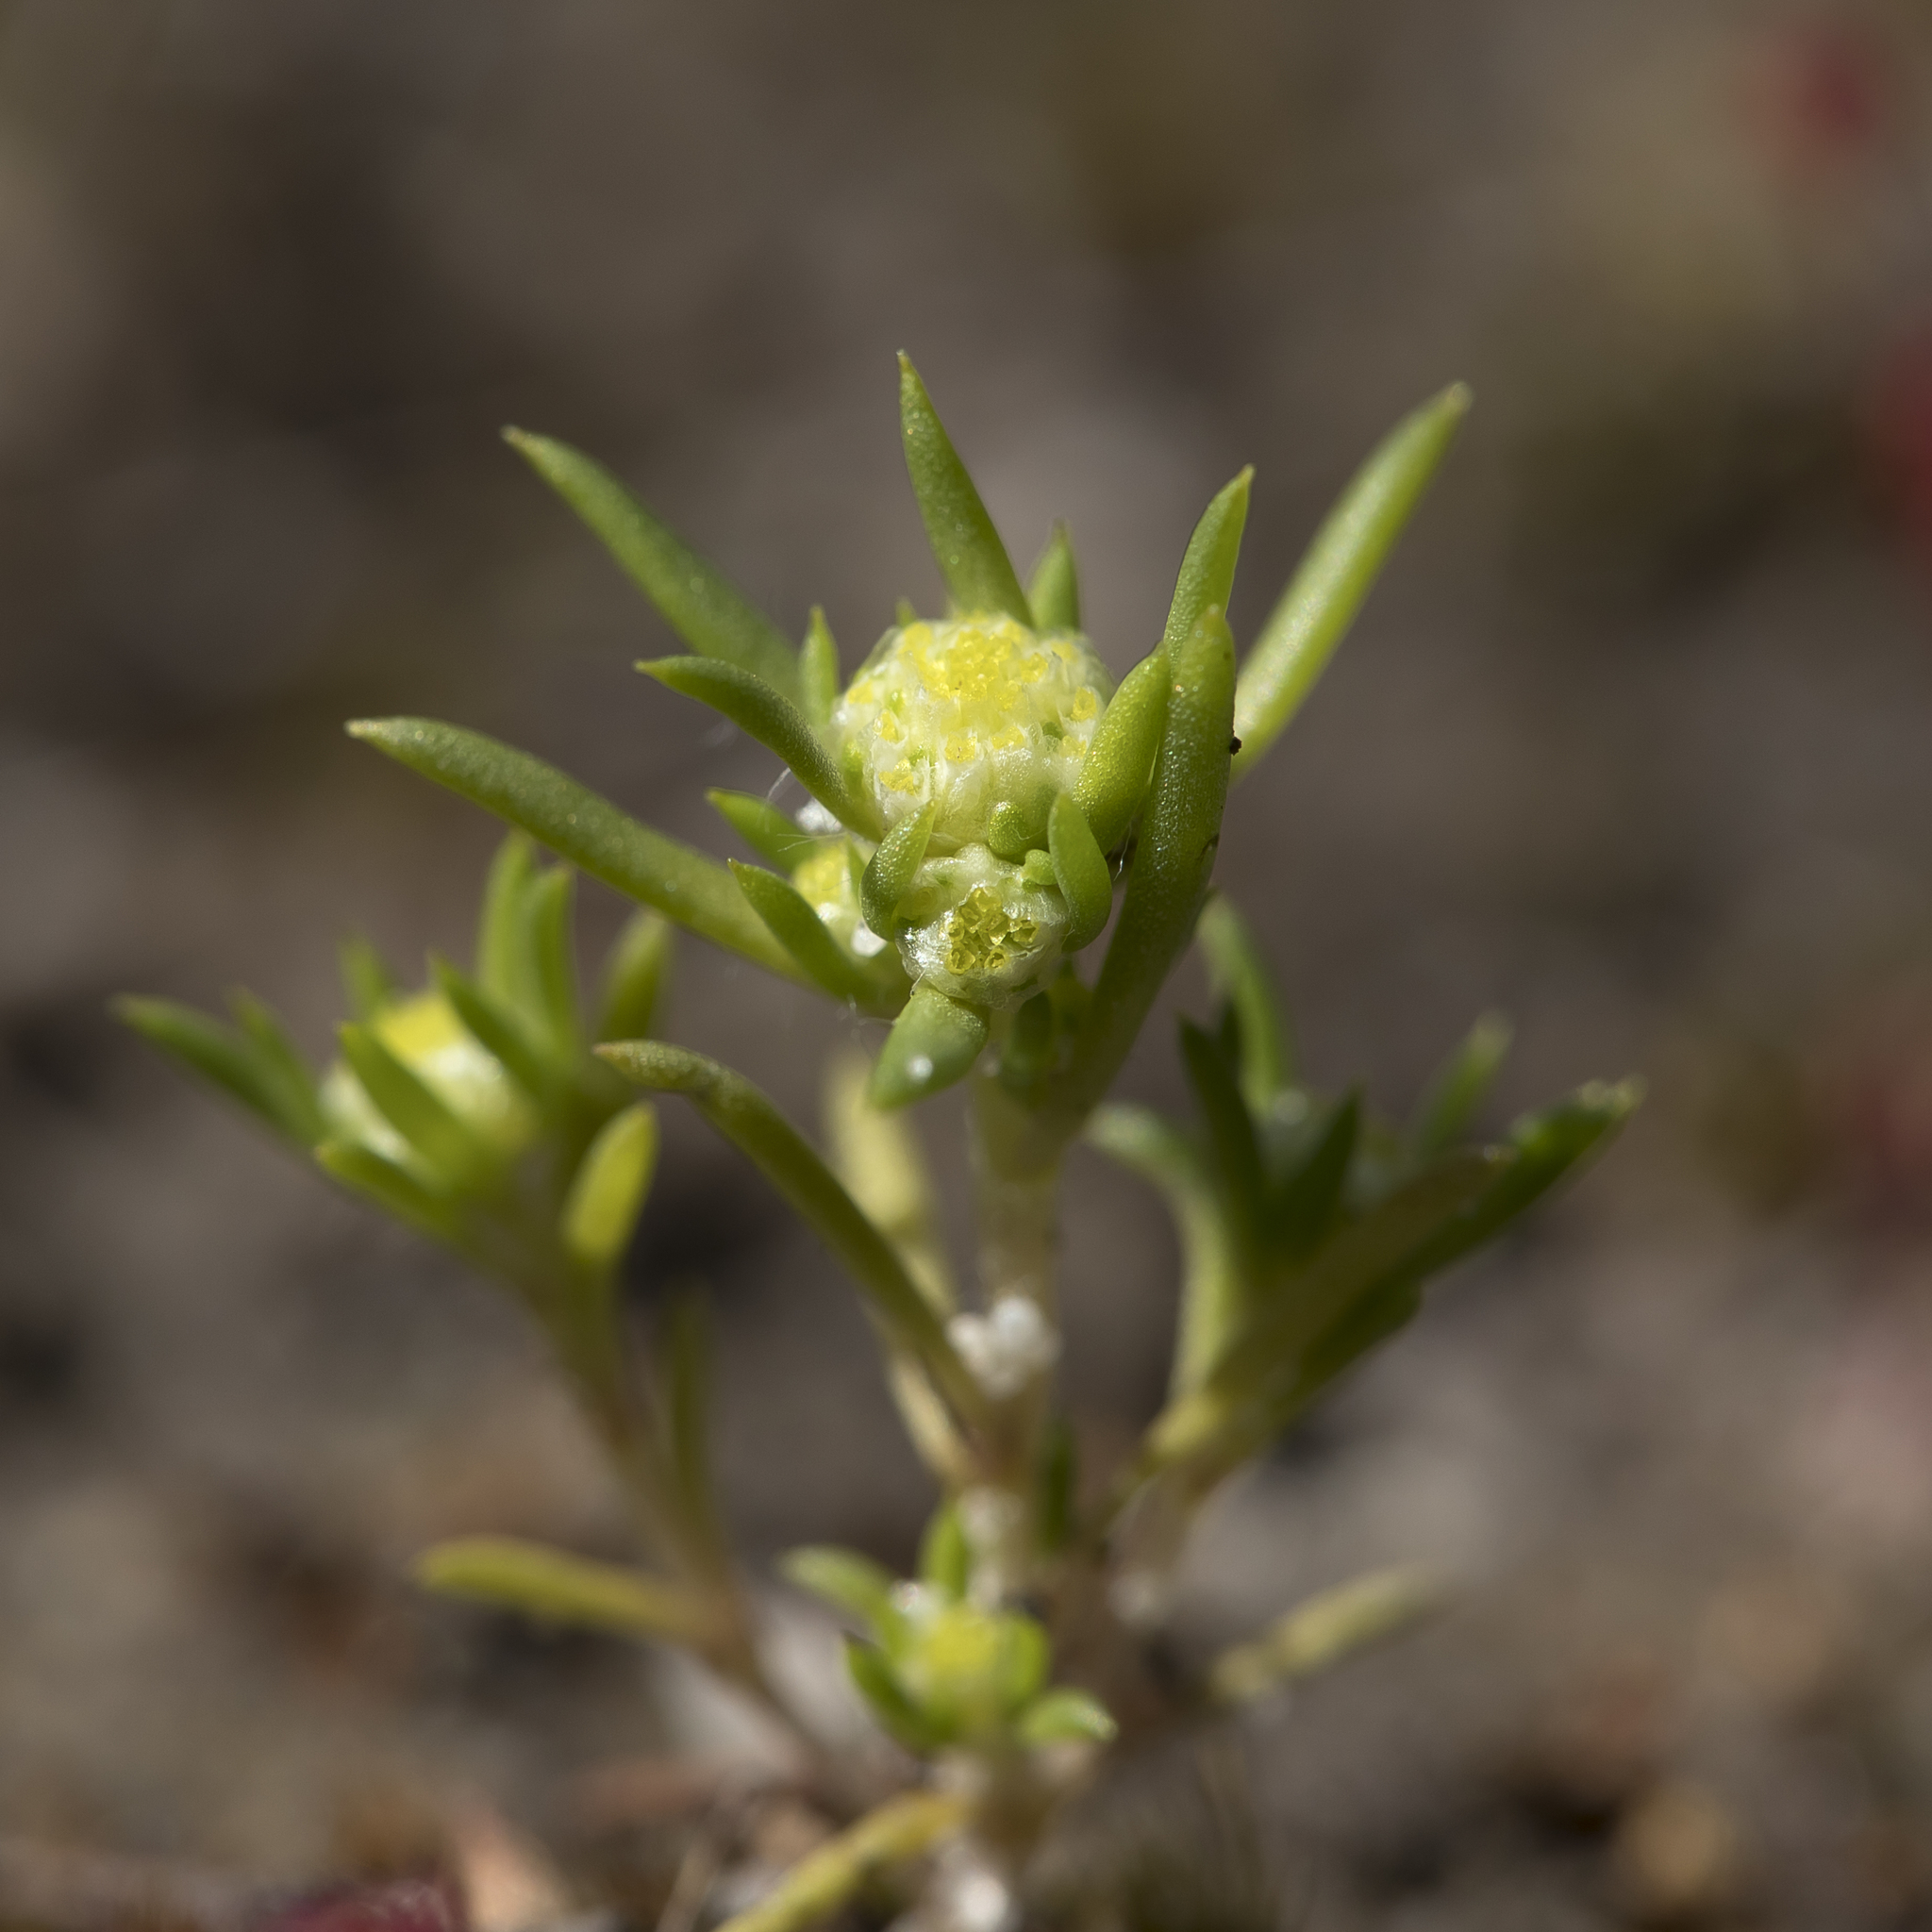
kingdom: Plantae
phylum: Tracheophyta
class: Magnoliopsida
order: Asterales
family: Asteraceae
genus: Siloxerus
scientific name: Siloxerus multiflorus
